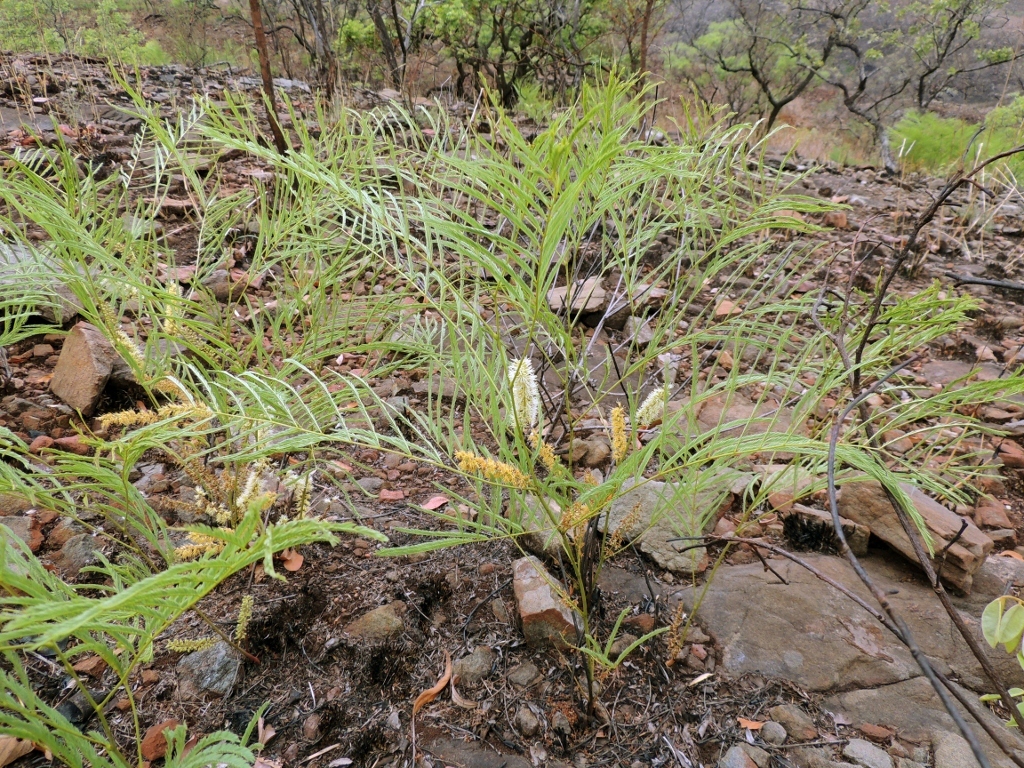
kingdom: Plantae
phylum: Tracheophyta
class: Magnoliopsida
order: Fabales
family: Fabaceae
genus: Elephantorrhiza
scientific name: Elephantorrhiza elephantina
